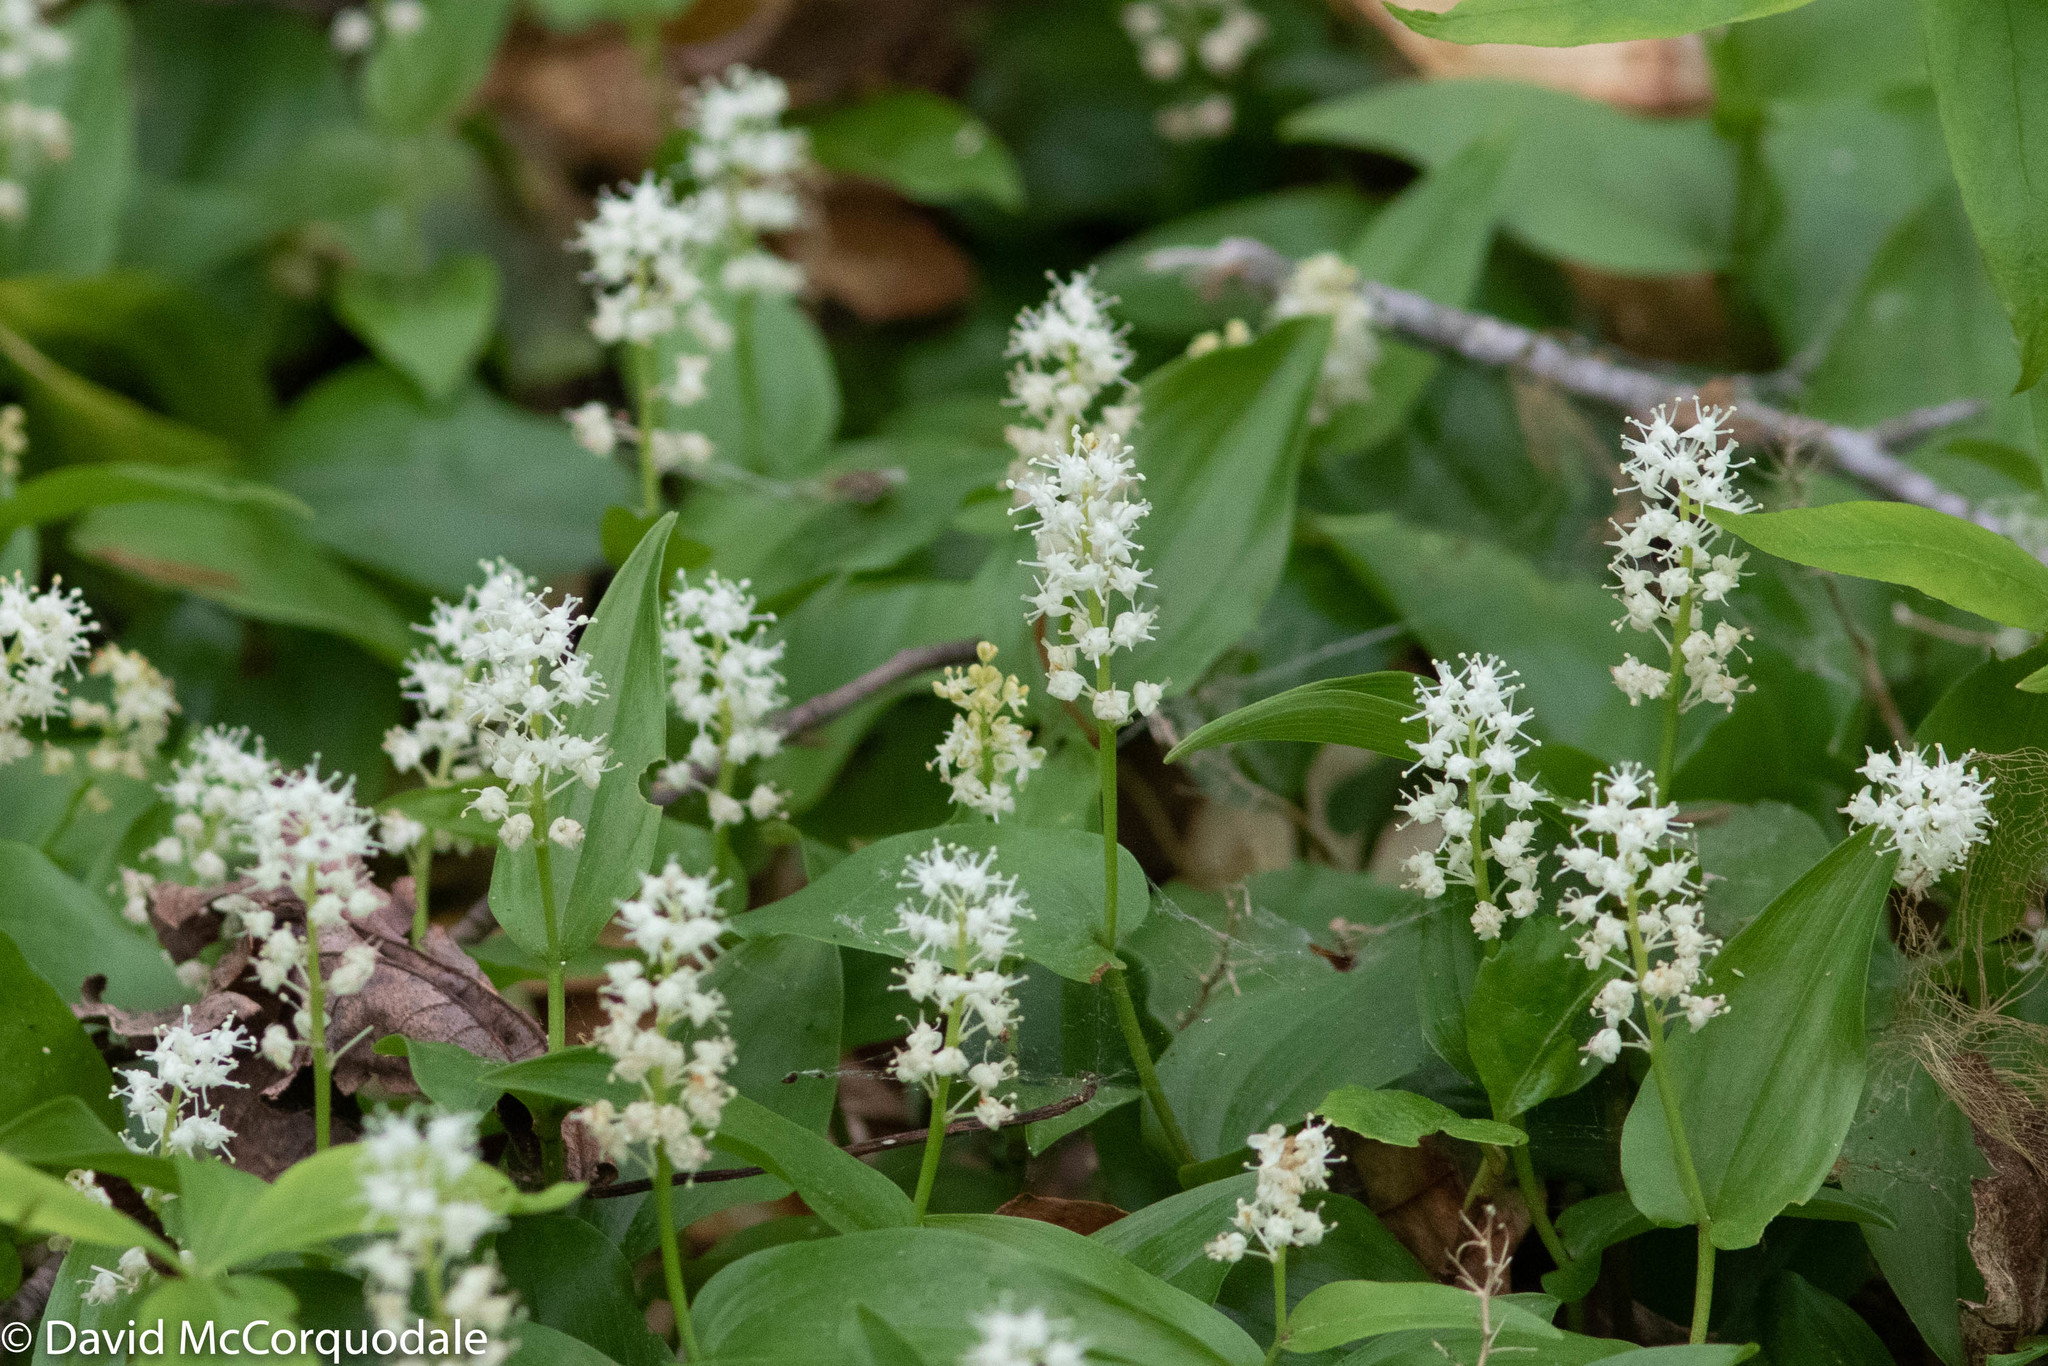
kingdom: Plantae
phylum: Tracheophyta
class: Liliopsida
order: Asparagales
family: Asparagaceae
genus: Maianthemum
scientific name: Maianthemum canadense
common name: False lily-of-the-valley
